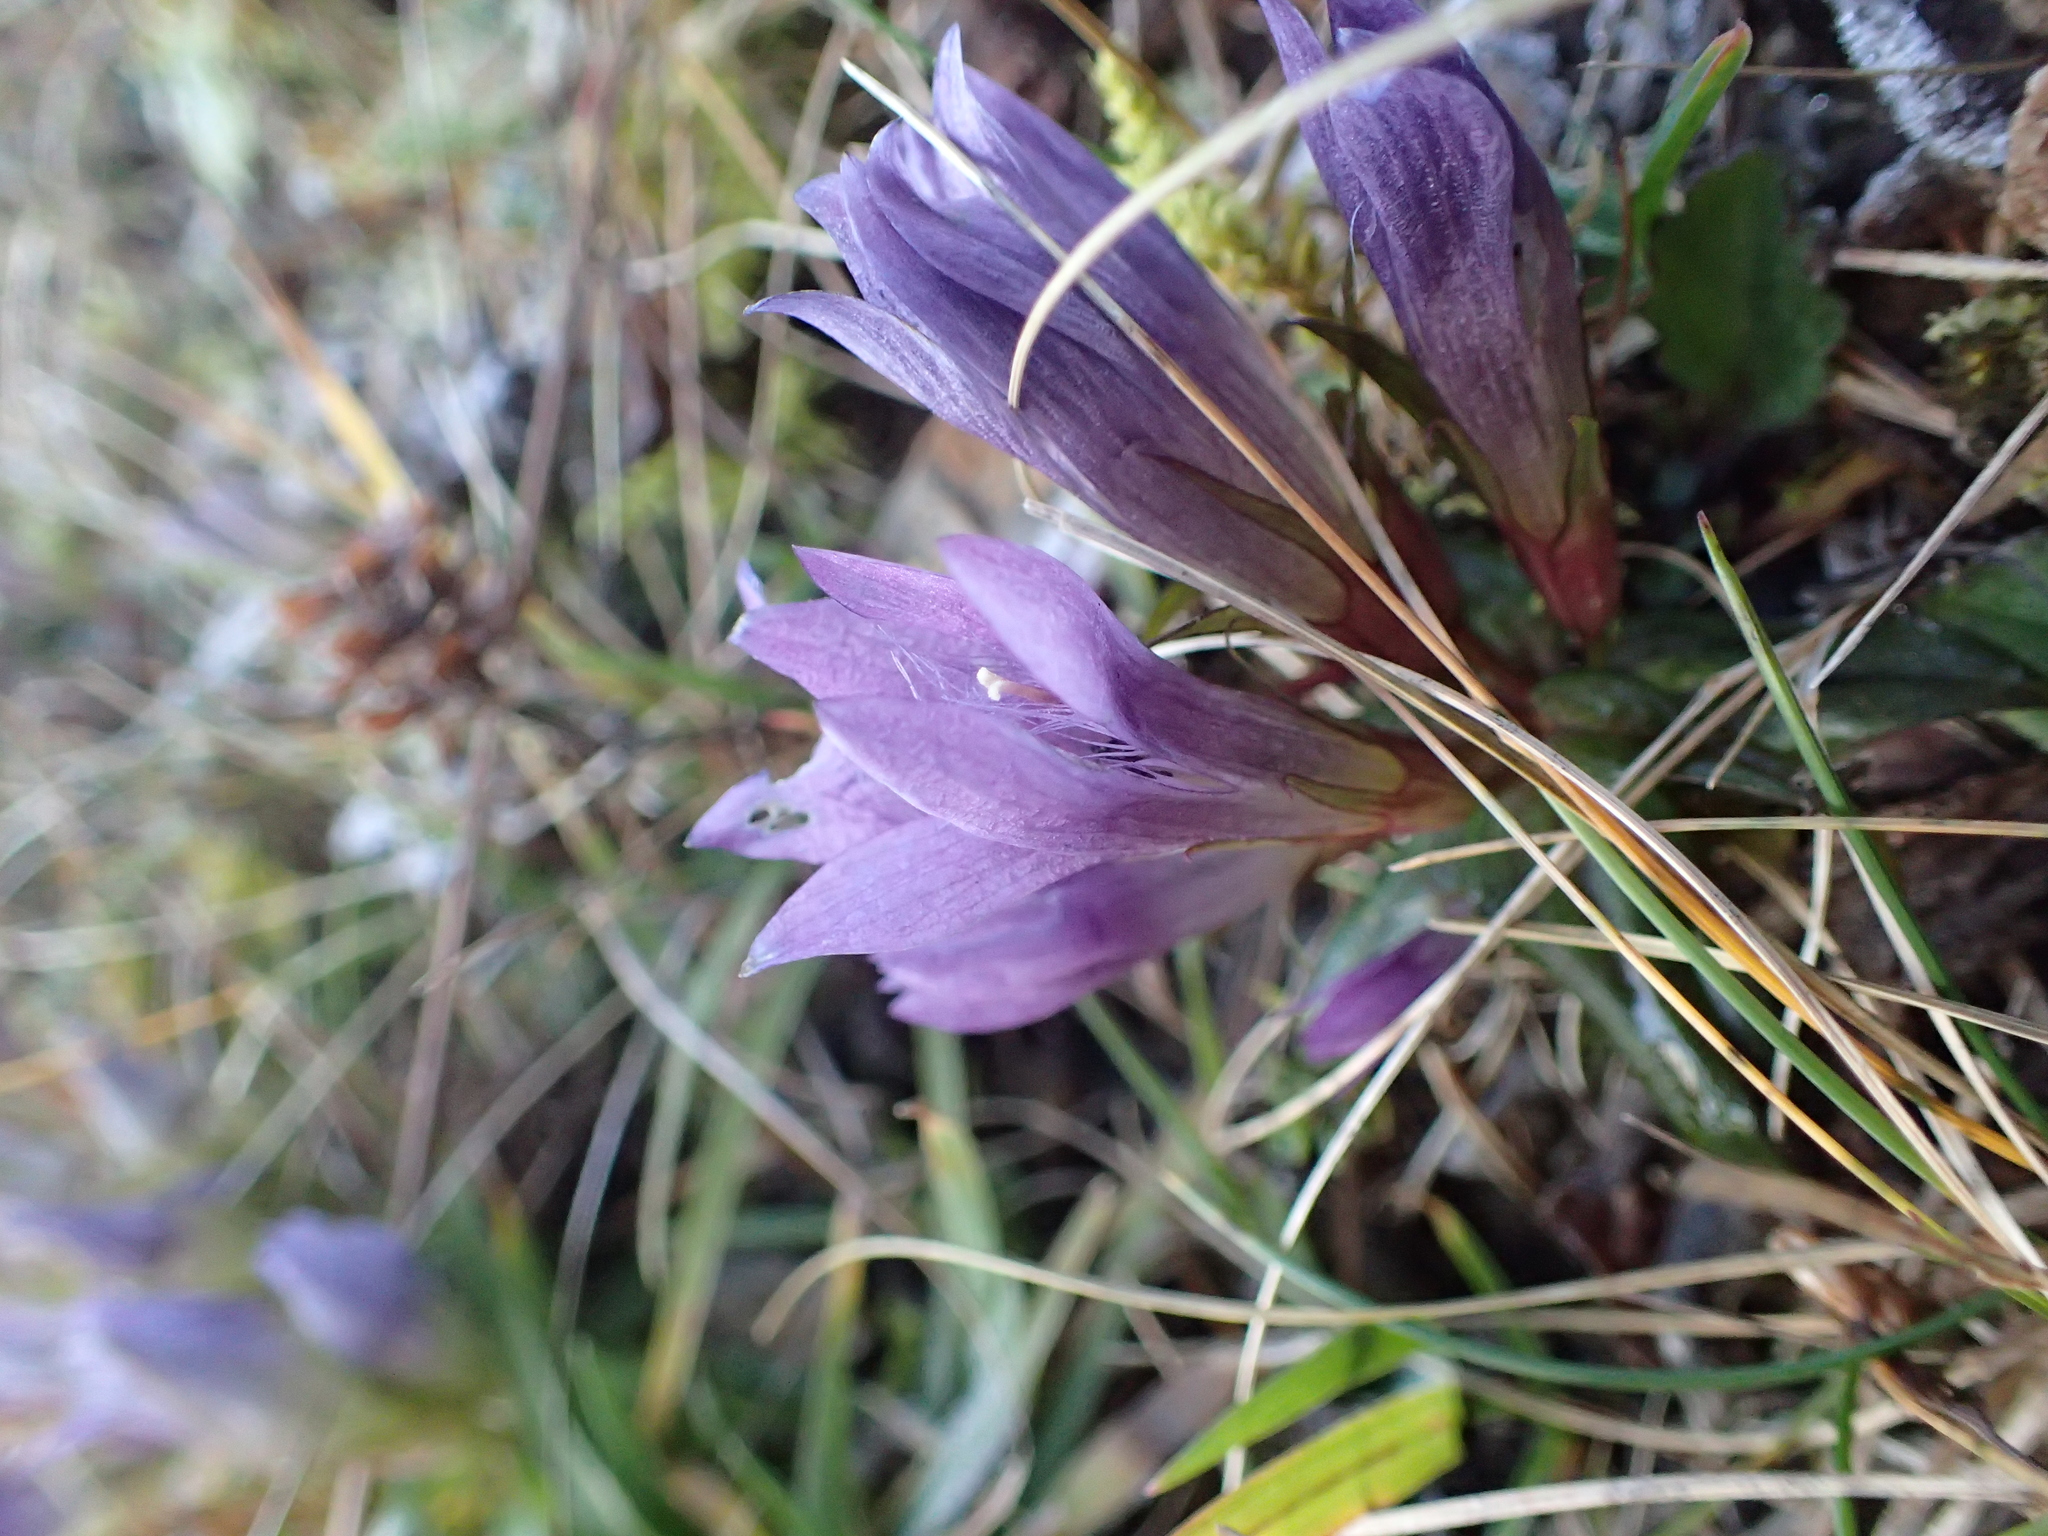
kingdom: Plantae
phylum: Tracheophyta
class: Magnoliopsida
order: Gentianales
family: Gentianaceae
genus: Gentianella
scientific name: Gentianella austriaca
